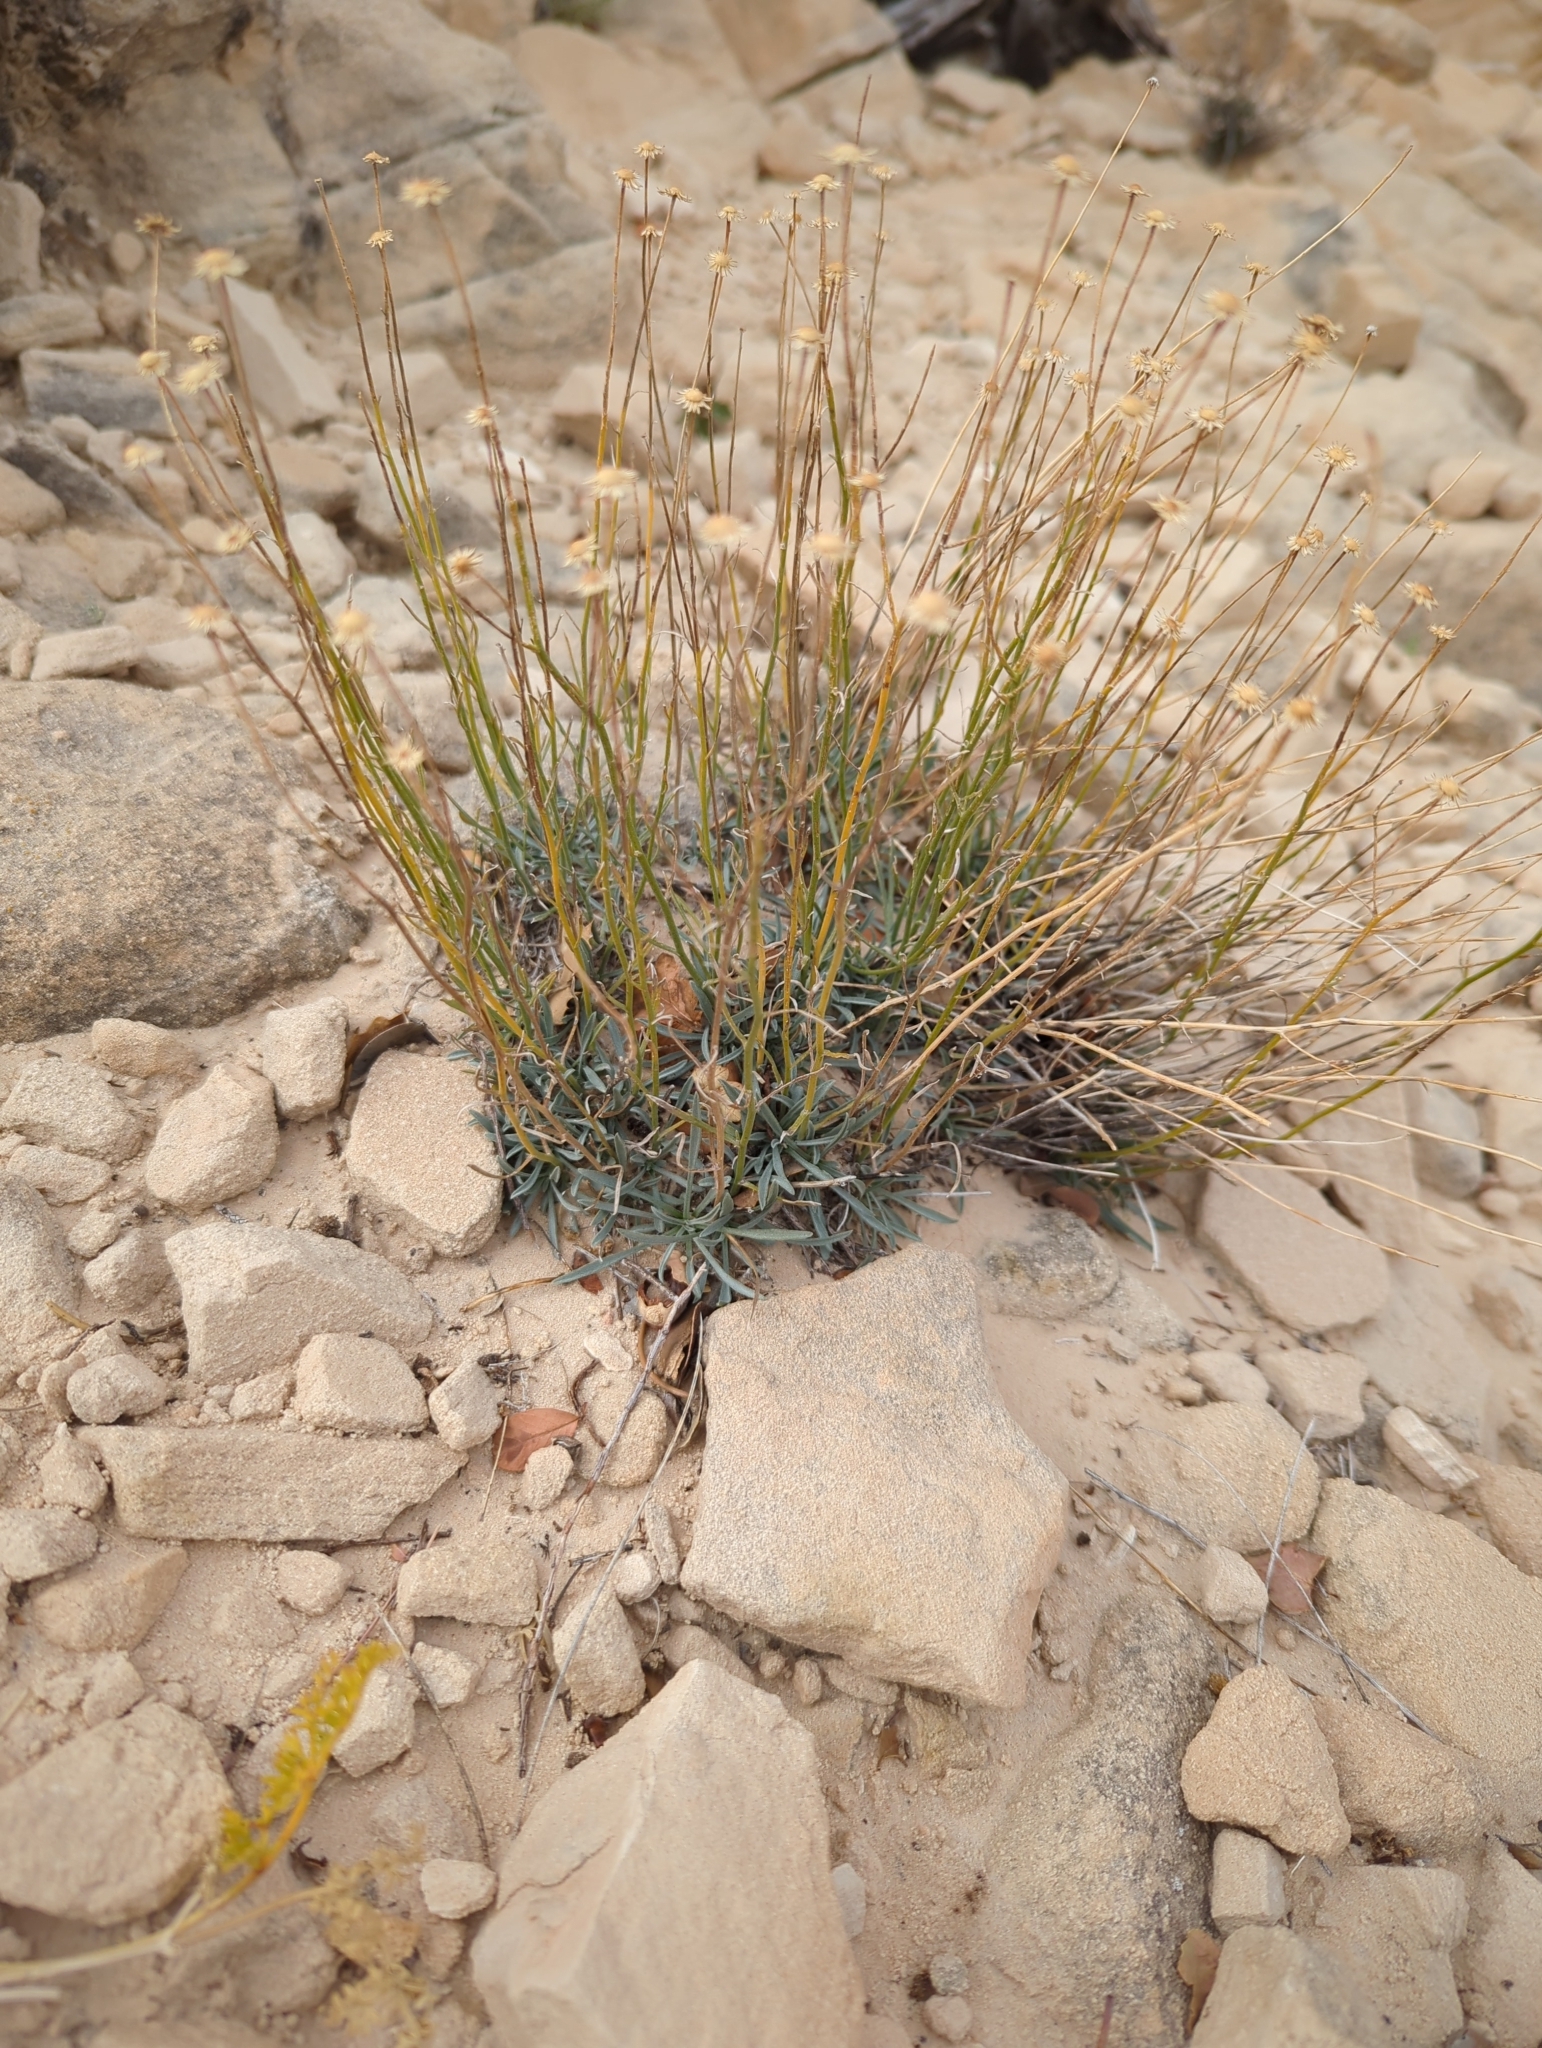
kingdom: Plantae
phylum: Tracheophyta
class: Magnoliopsida
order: Asterales
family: Asteraceae
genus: Erigeron
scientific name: Erigeron utahensis
